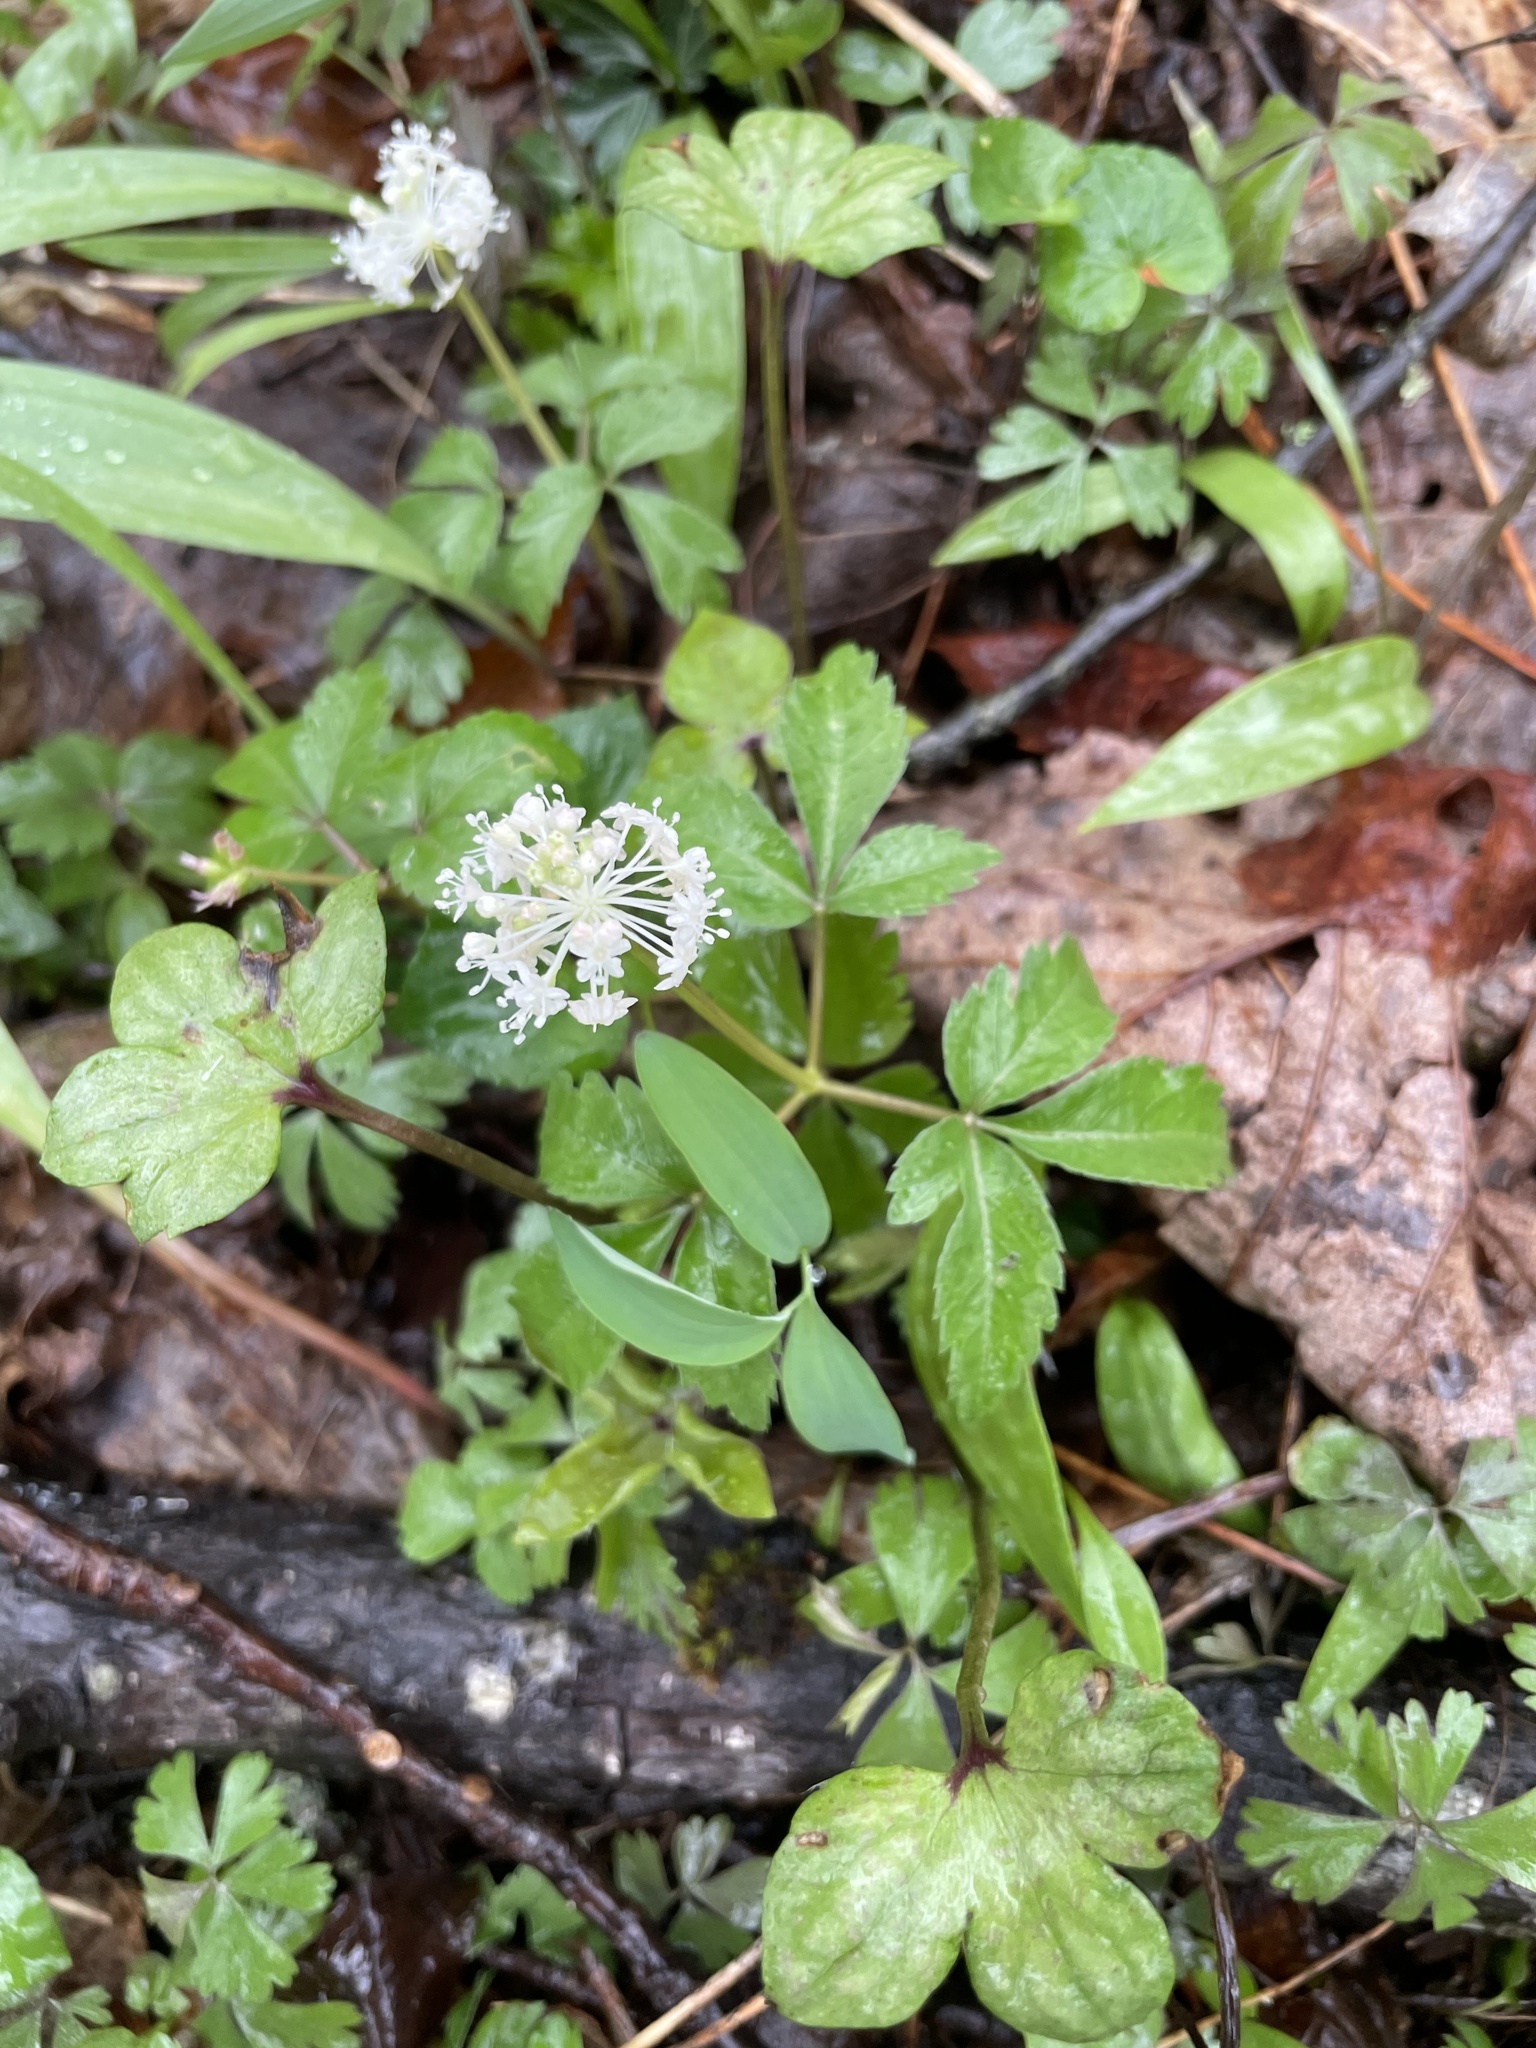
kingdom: Plantae
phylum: Tracheophyta
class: Magnoliopsida
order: Apiales
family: Araliaceae
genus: Panax
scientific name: Panax trifolius
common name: Dwarf ginseng
